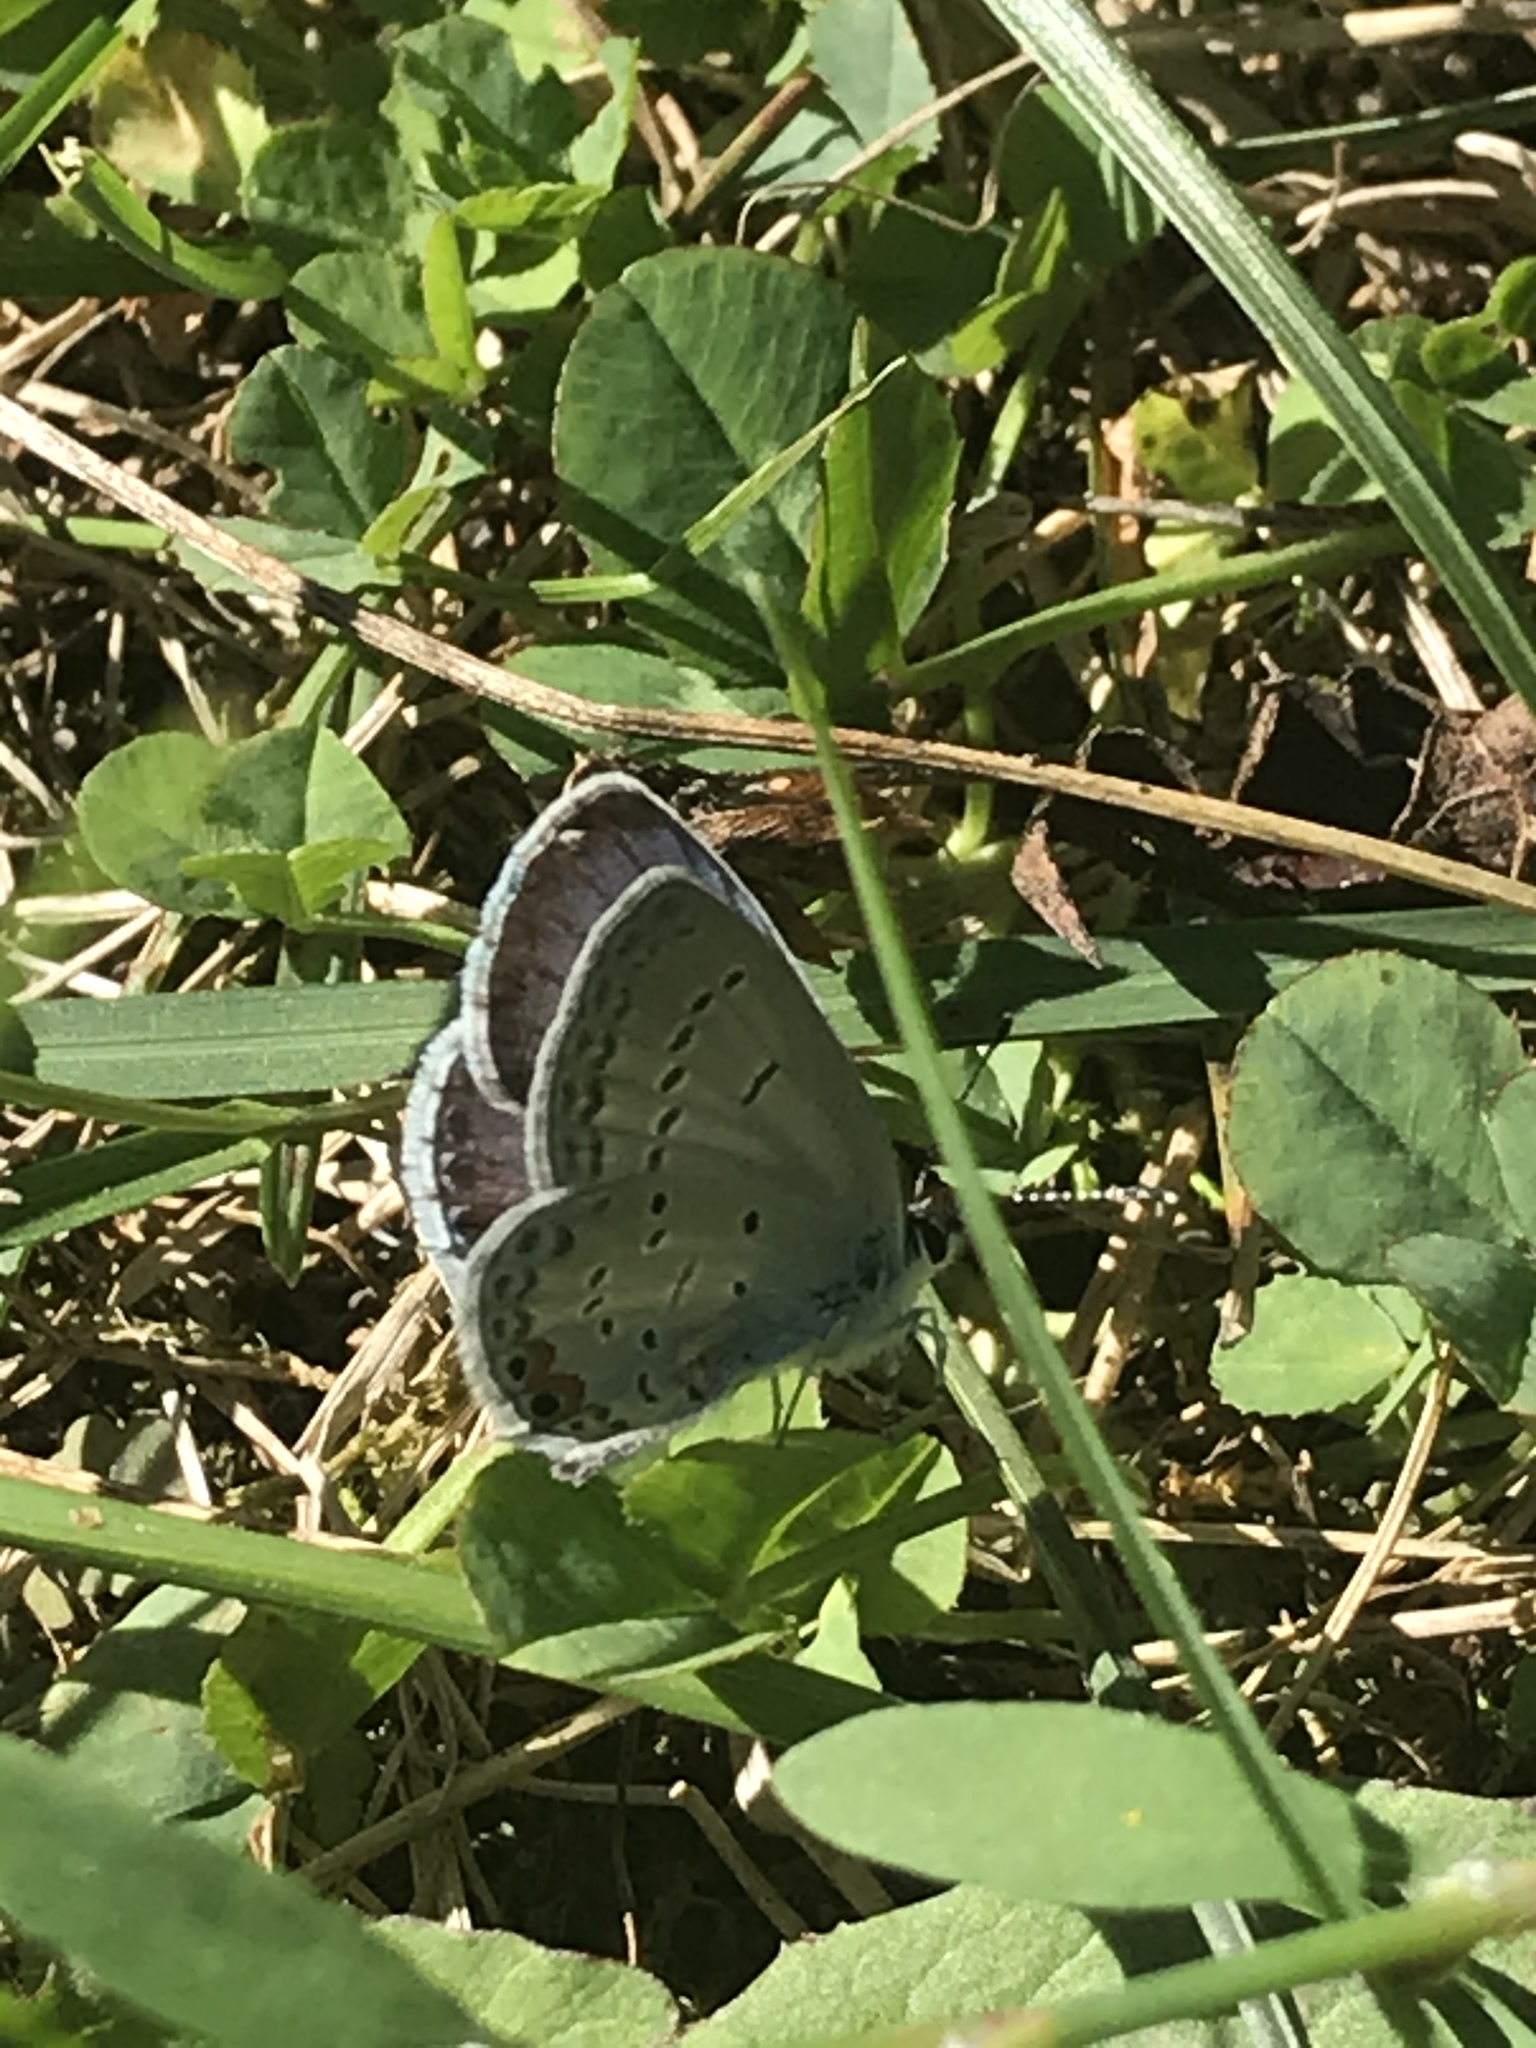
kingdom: Animalia
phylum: Arthropoda
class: Insecta
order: Lepidoptera
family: Lycaenidae
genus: Elkalyce
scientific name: Elkalyce comyntas
